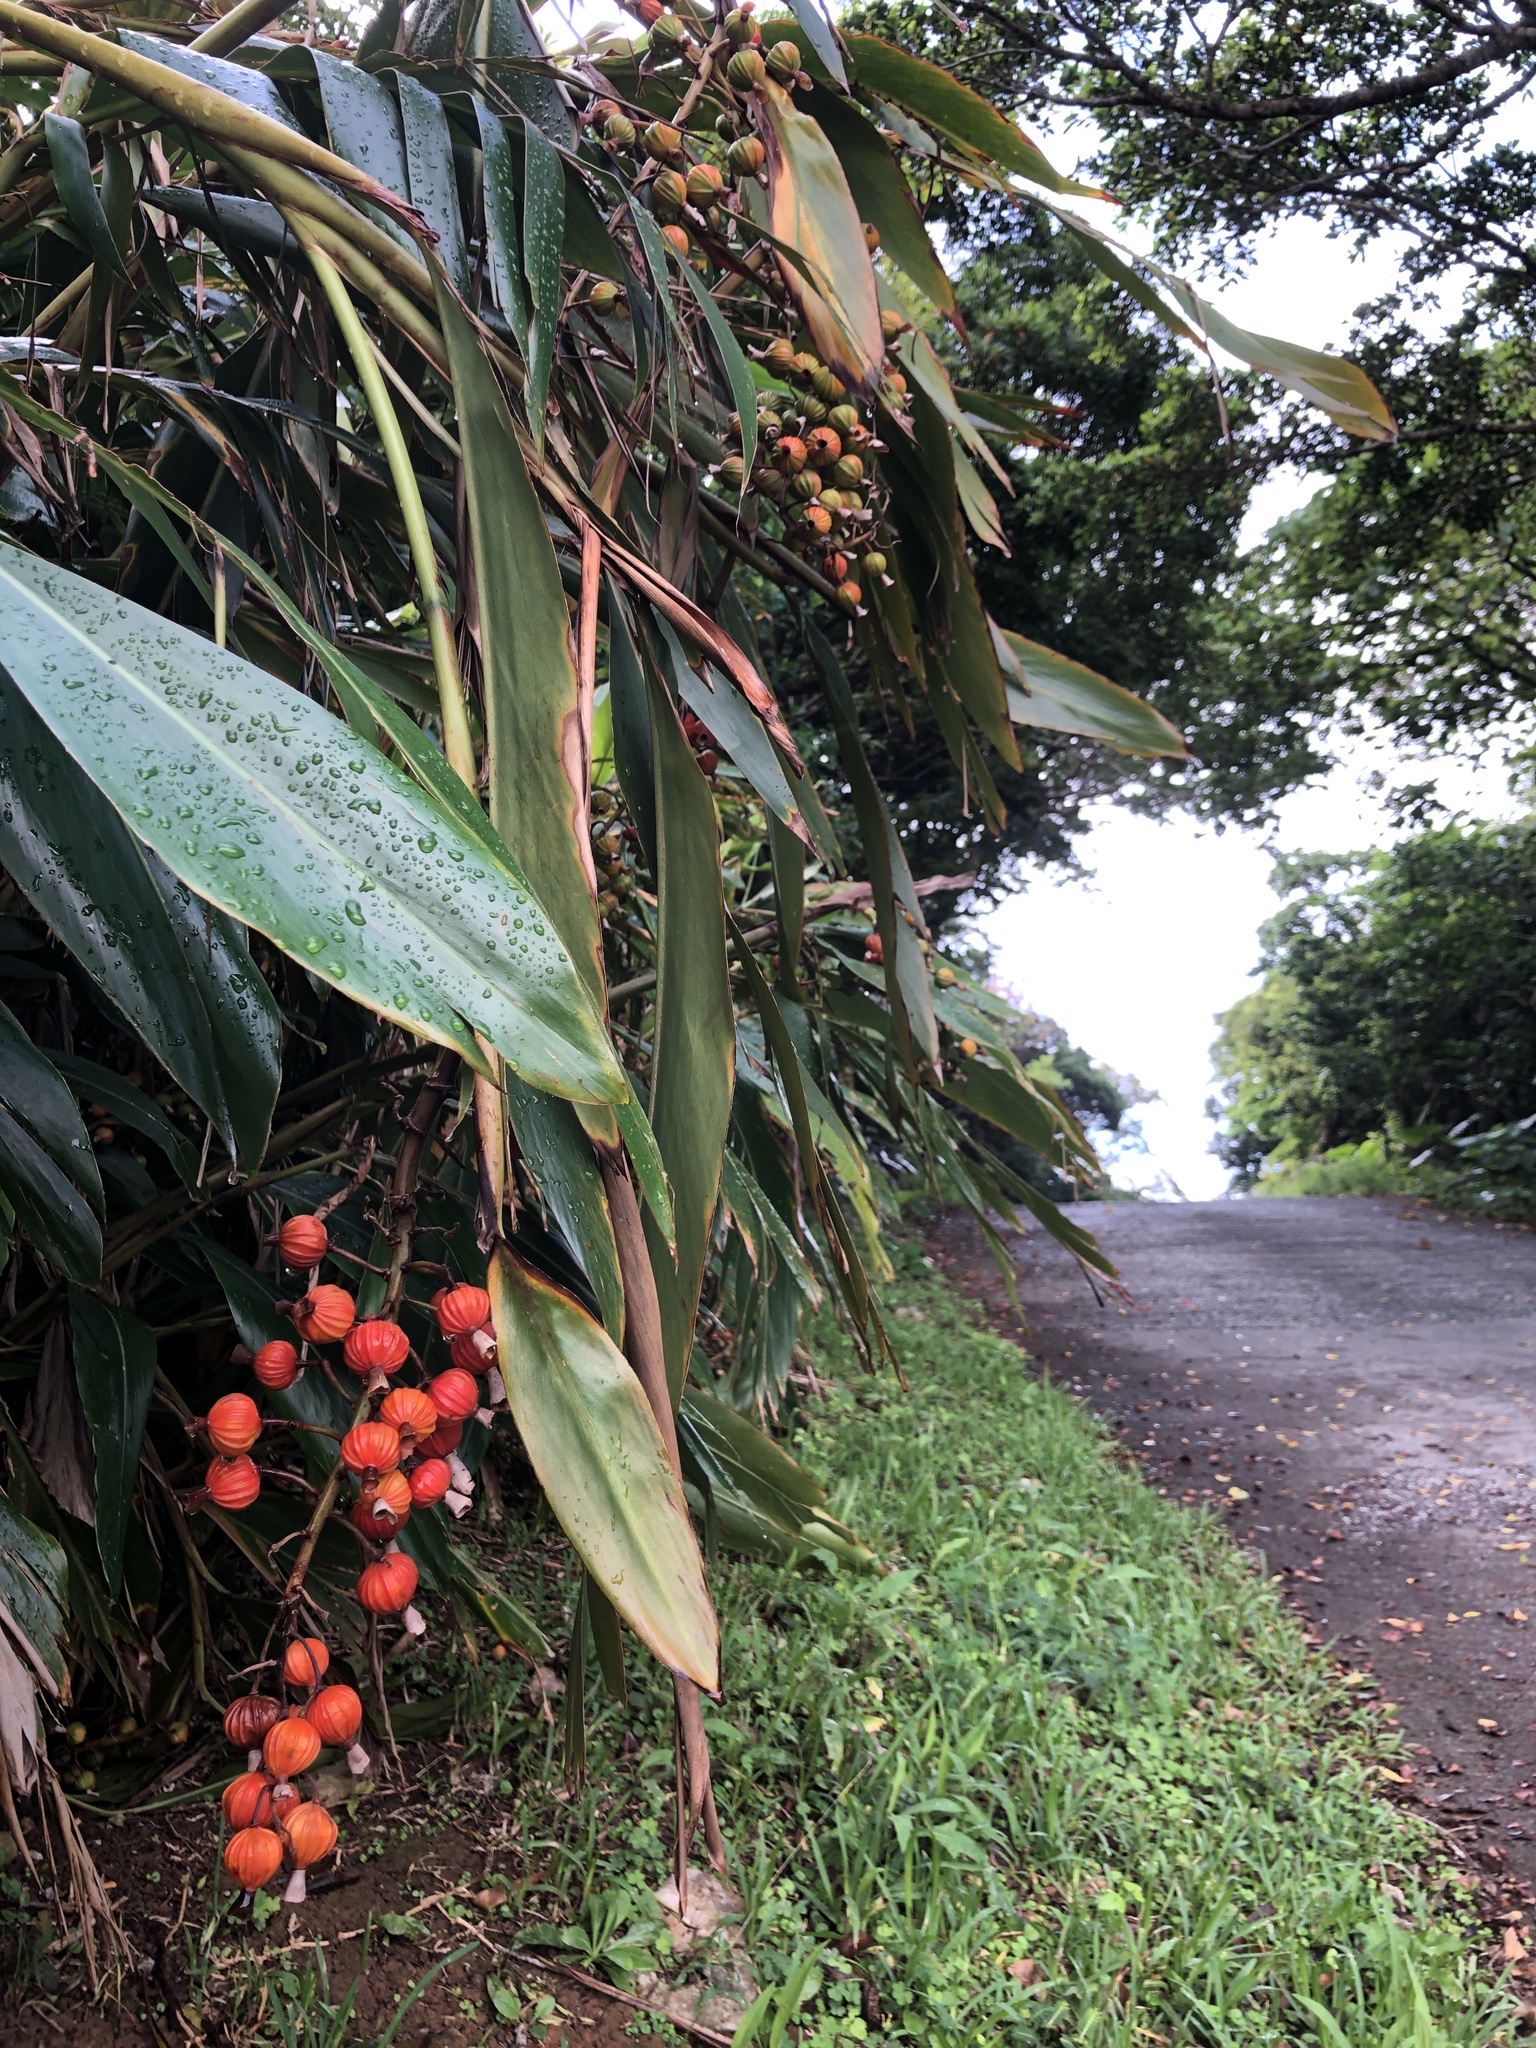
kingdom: Plantae
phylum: Tracheophyta
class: Liliopsida
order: Zingiberales
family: Zingiberaceae
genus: Alpinia
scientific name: Alpinia zerumbet
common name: Shellplant
